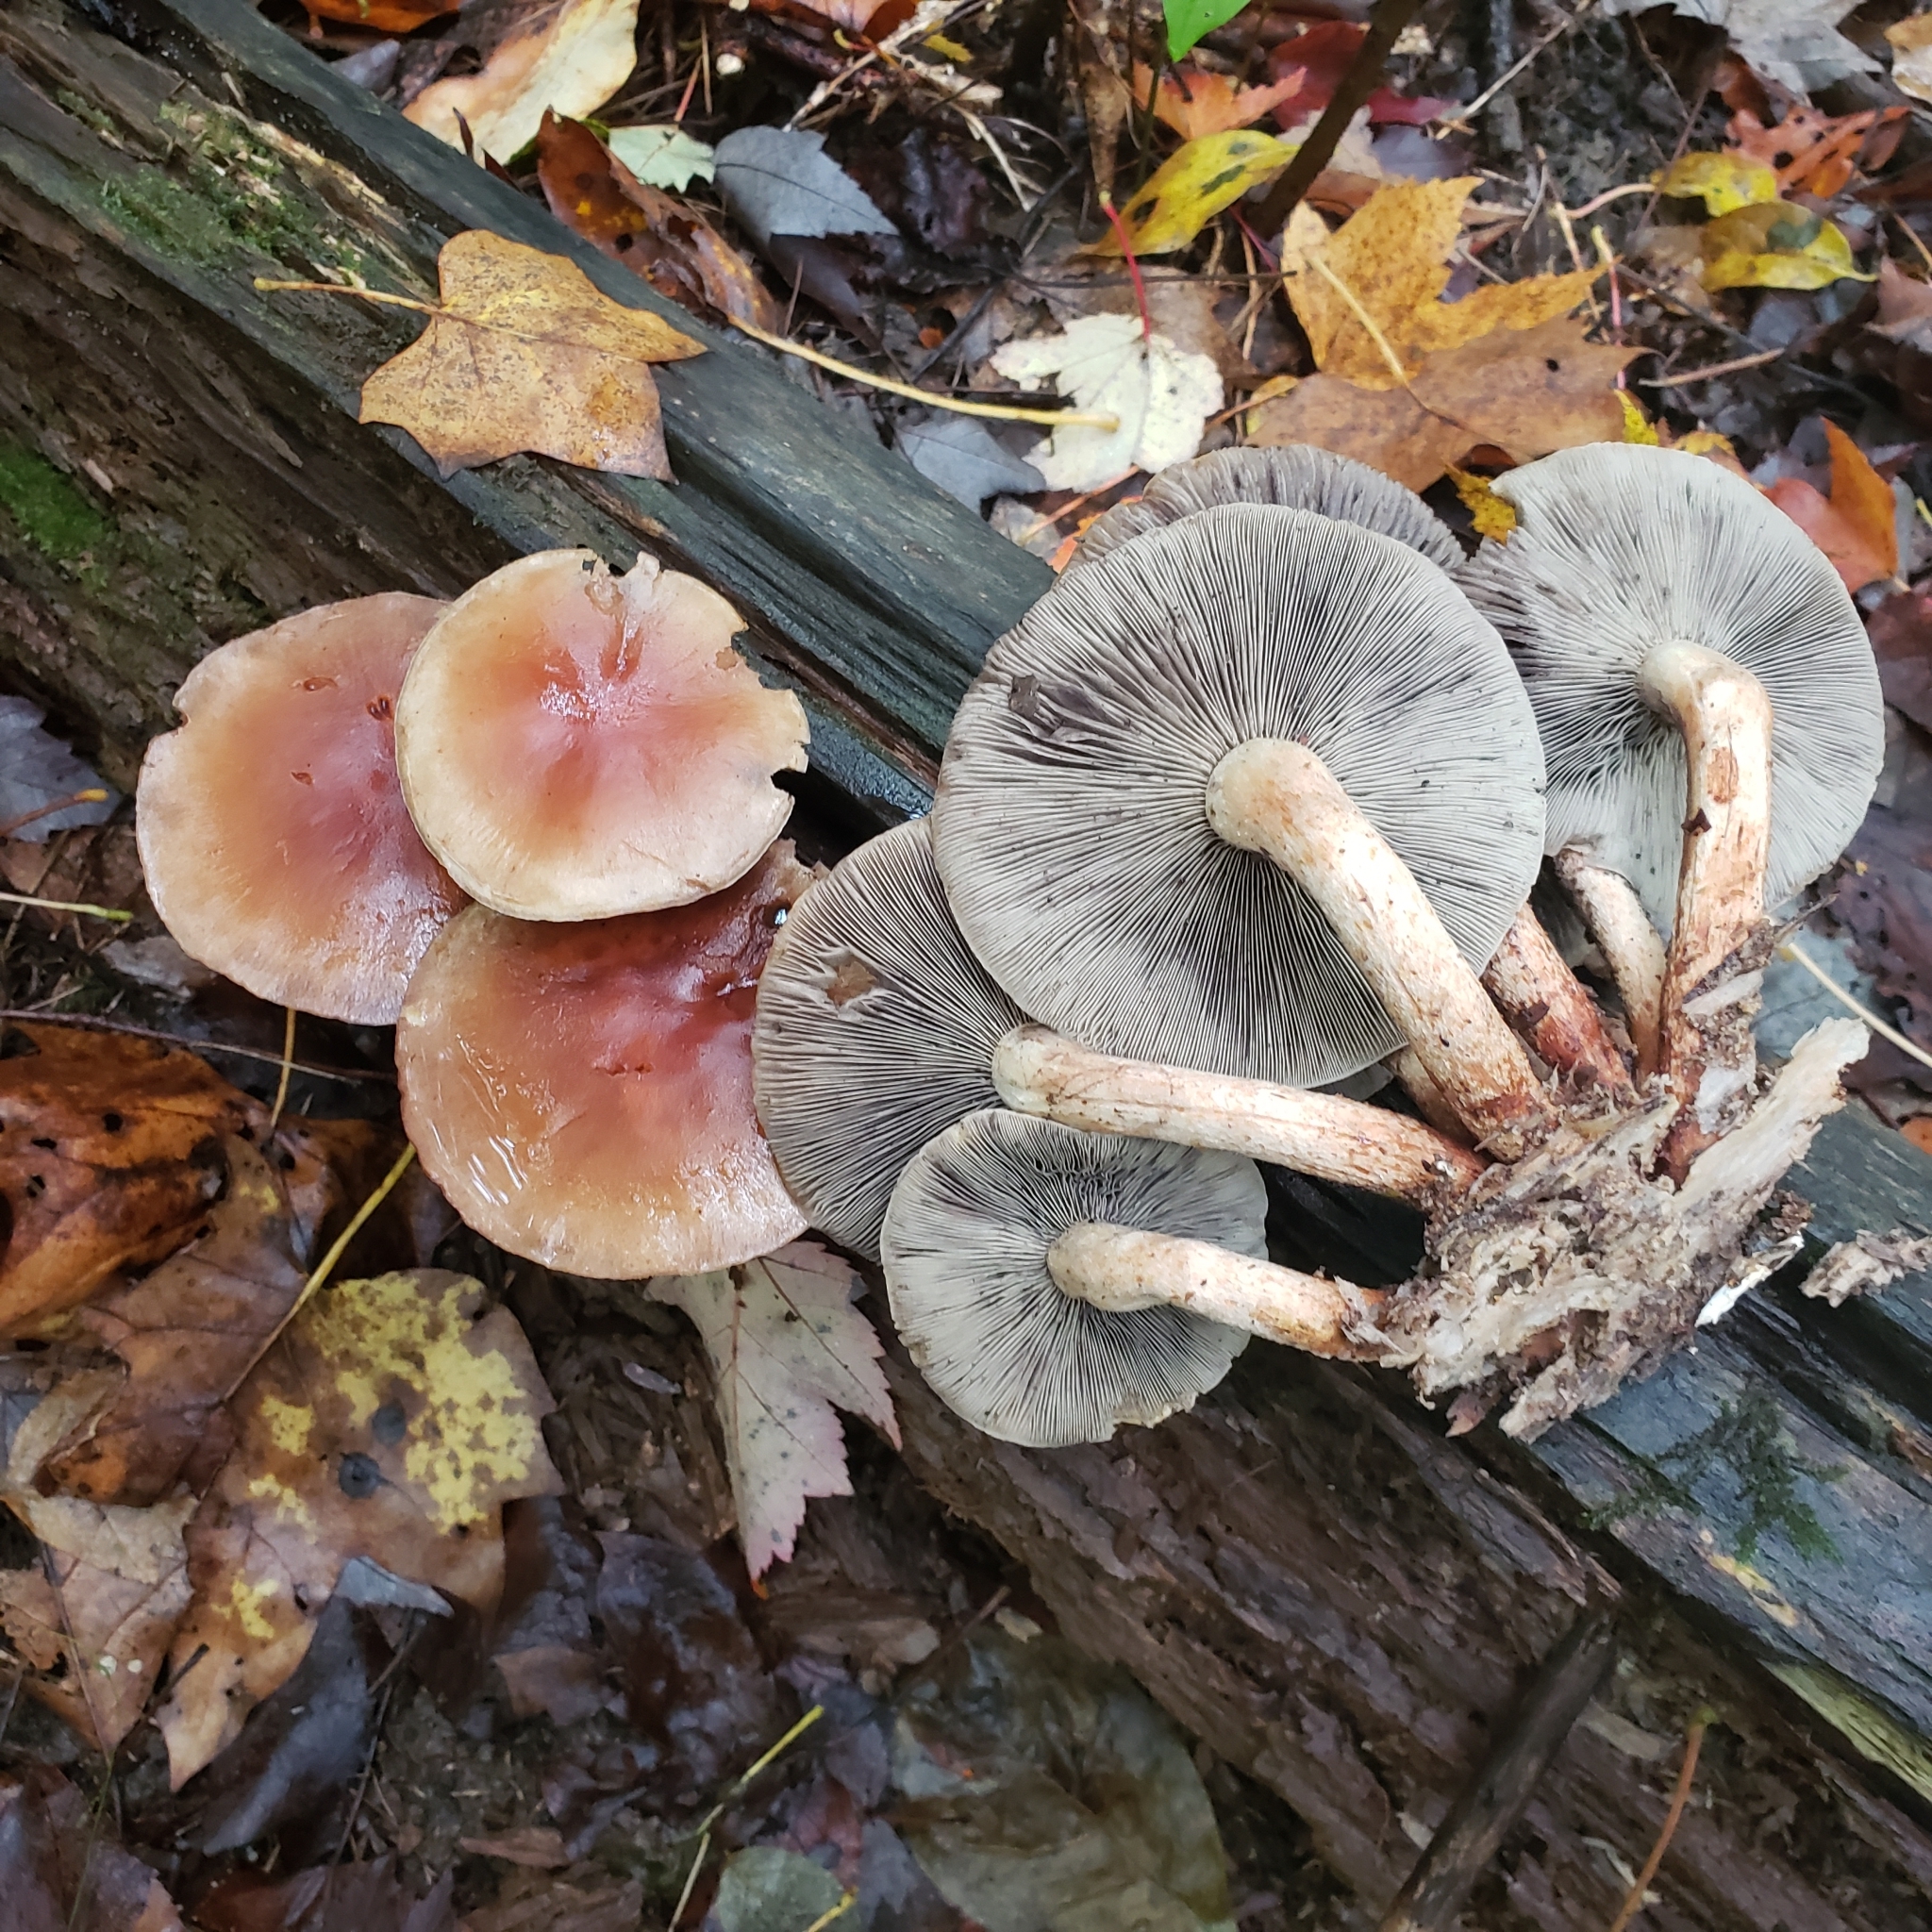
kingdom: Fungi
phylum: Basidiomycota
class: Agaricomycetes
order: Agaricales
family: Strophariaceae
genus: Hypholoma
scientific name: Hypholoma lateritium
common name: Brick caps
